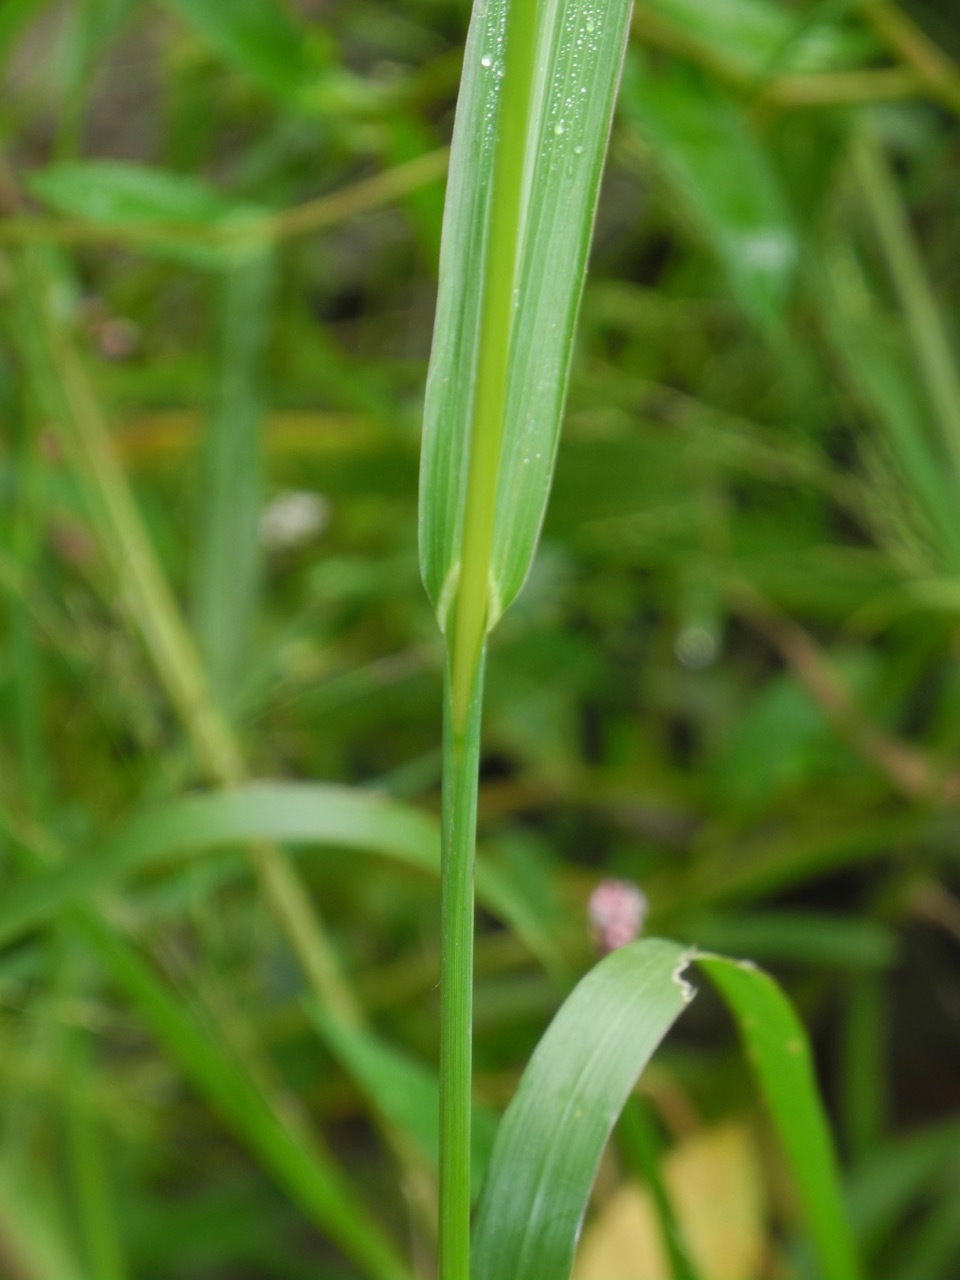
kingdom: Plantae
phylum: Tracheophyta
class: Liliopsida
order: Poales
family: Poaceae
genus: Echinochloa
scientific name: Echinochloa crus-galli
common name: Cockspur
